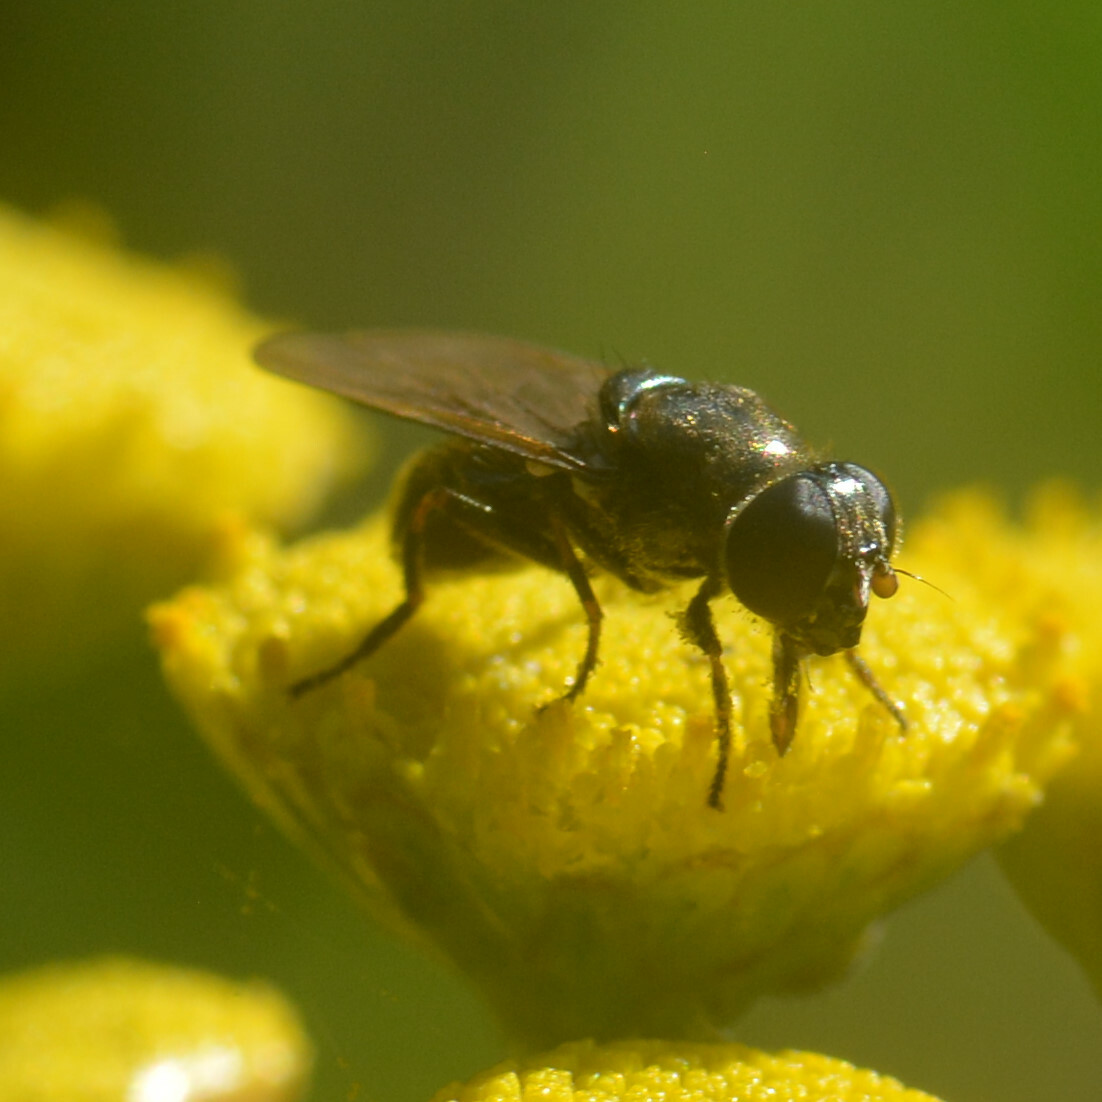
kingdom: Animalia
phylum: Arthropoda
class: Insecta
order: Diptera
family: Syrphidae
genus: Cheilosia
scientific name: Cheilosia
